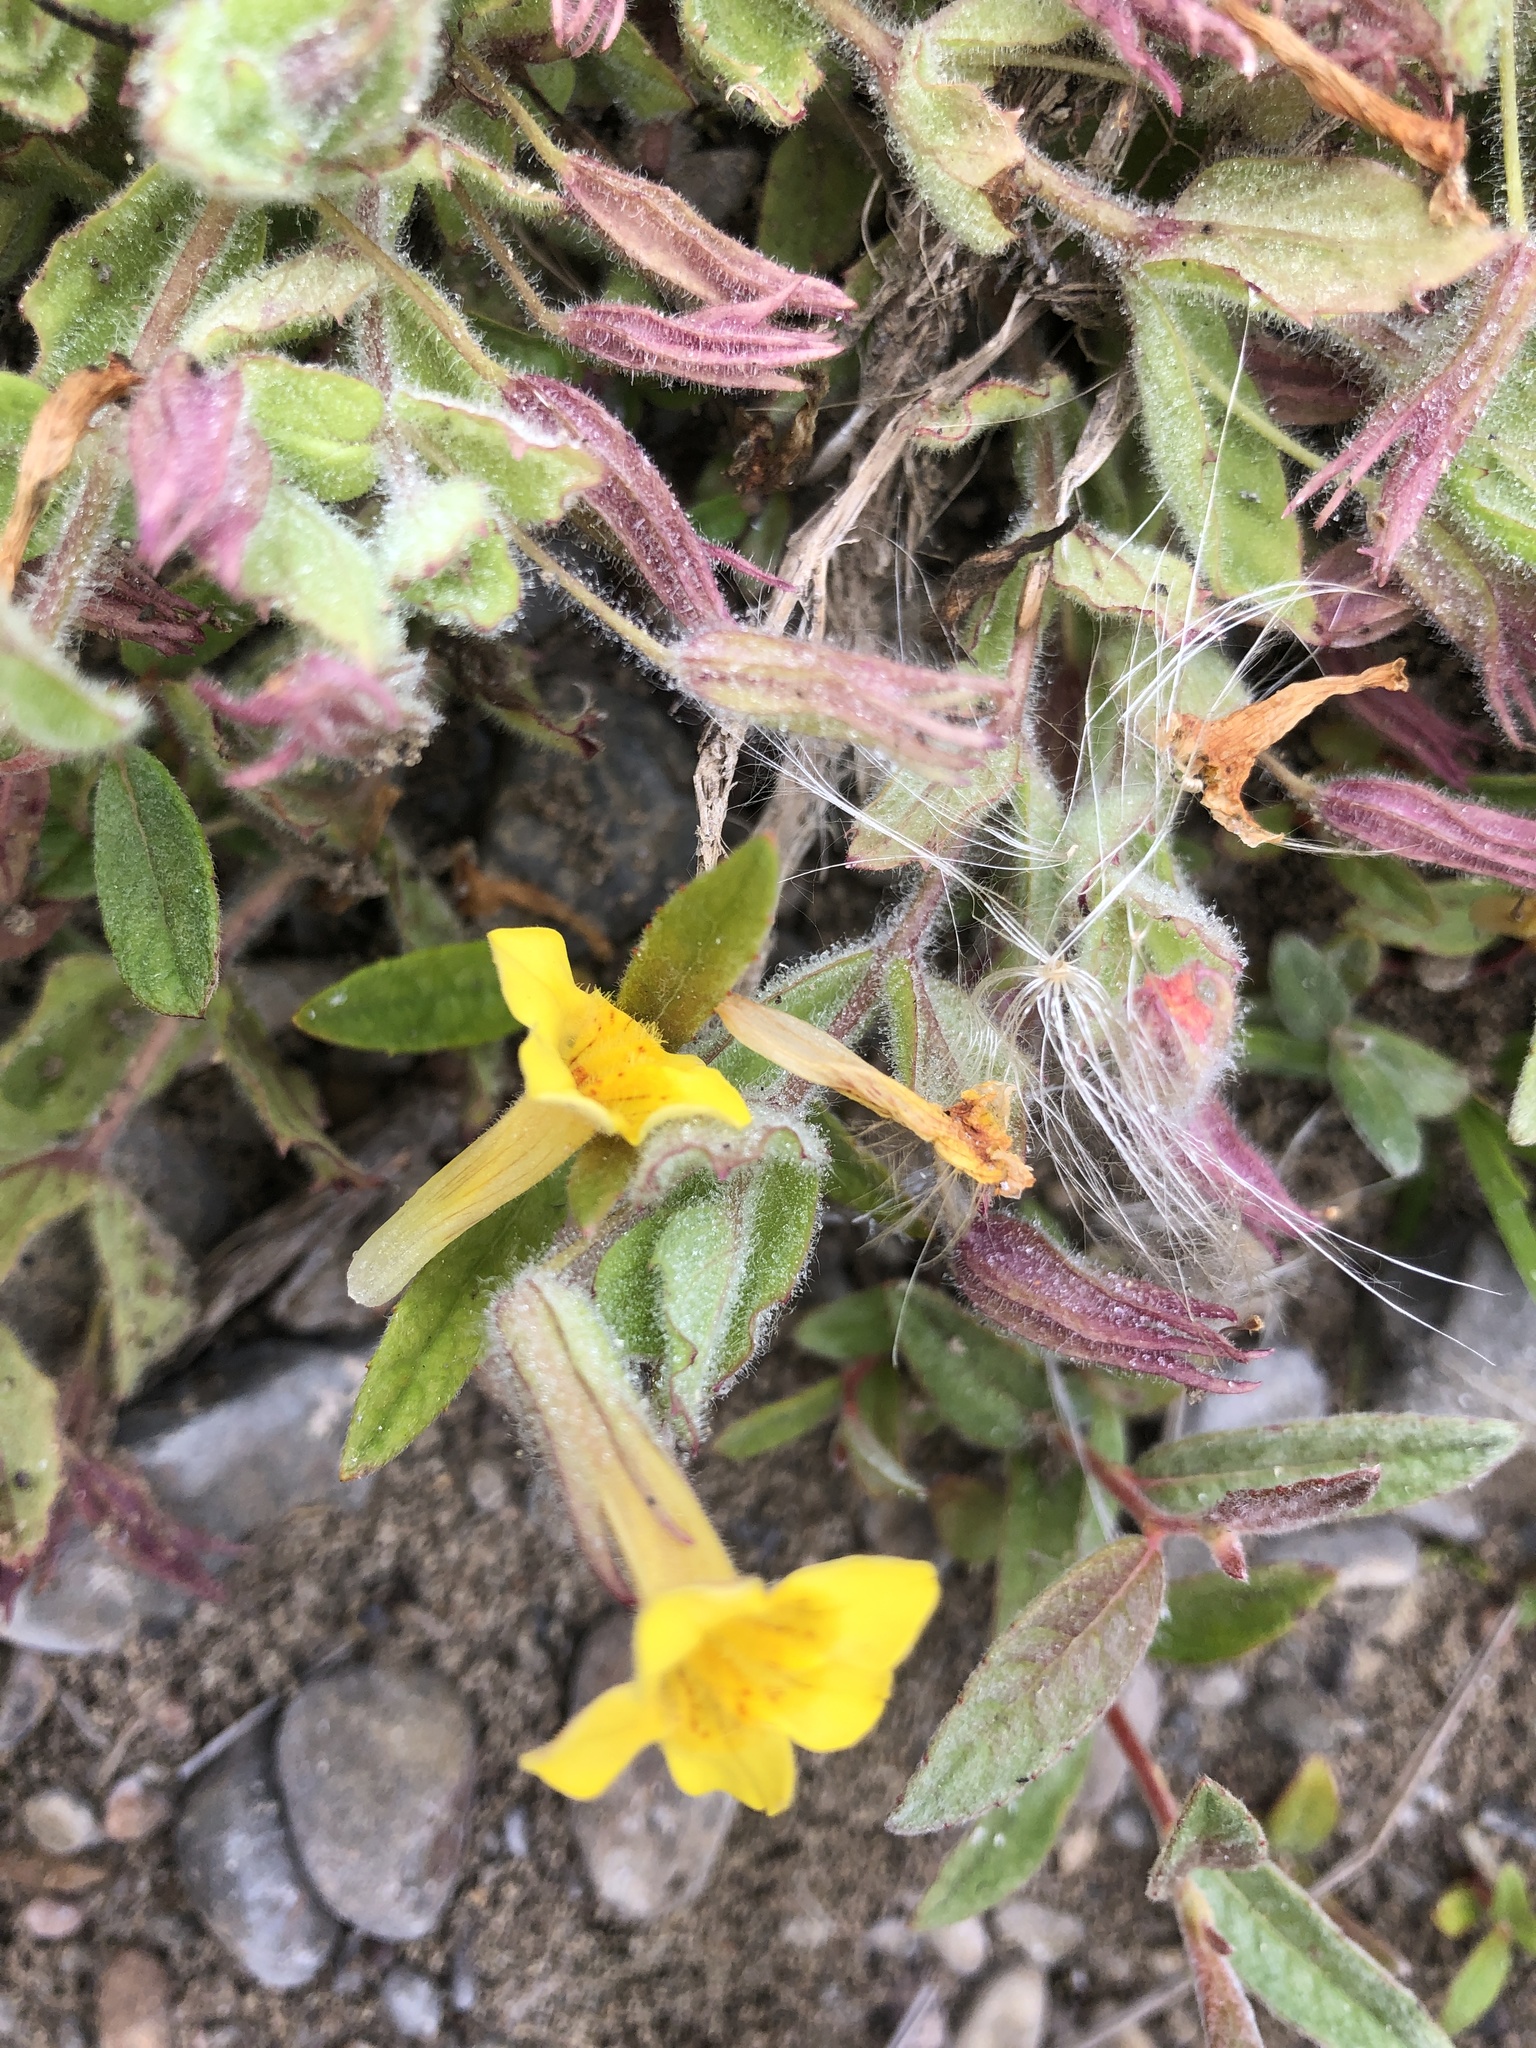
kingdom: Plantae
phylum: Tracheophyta
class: Magnoliopsida
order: Lamiales
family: Phrymaceae
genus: Erythranthe
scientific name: Erythranthe ptilota
